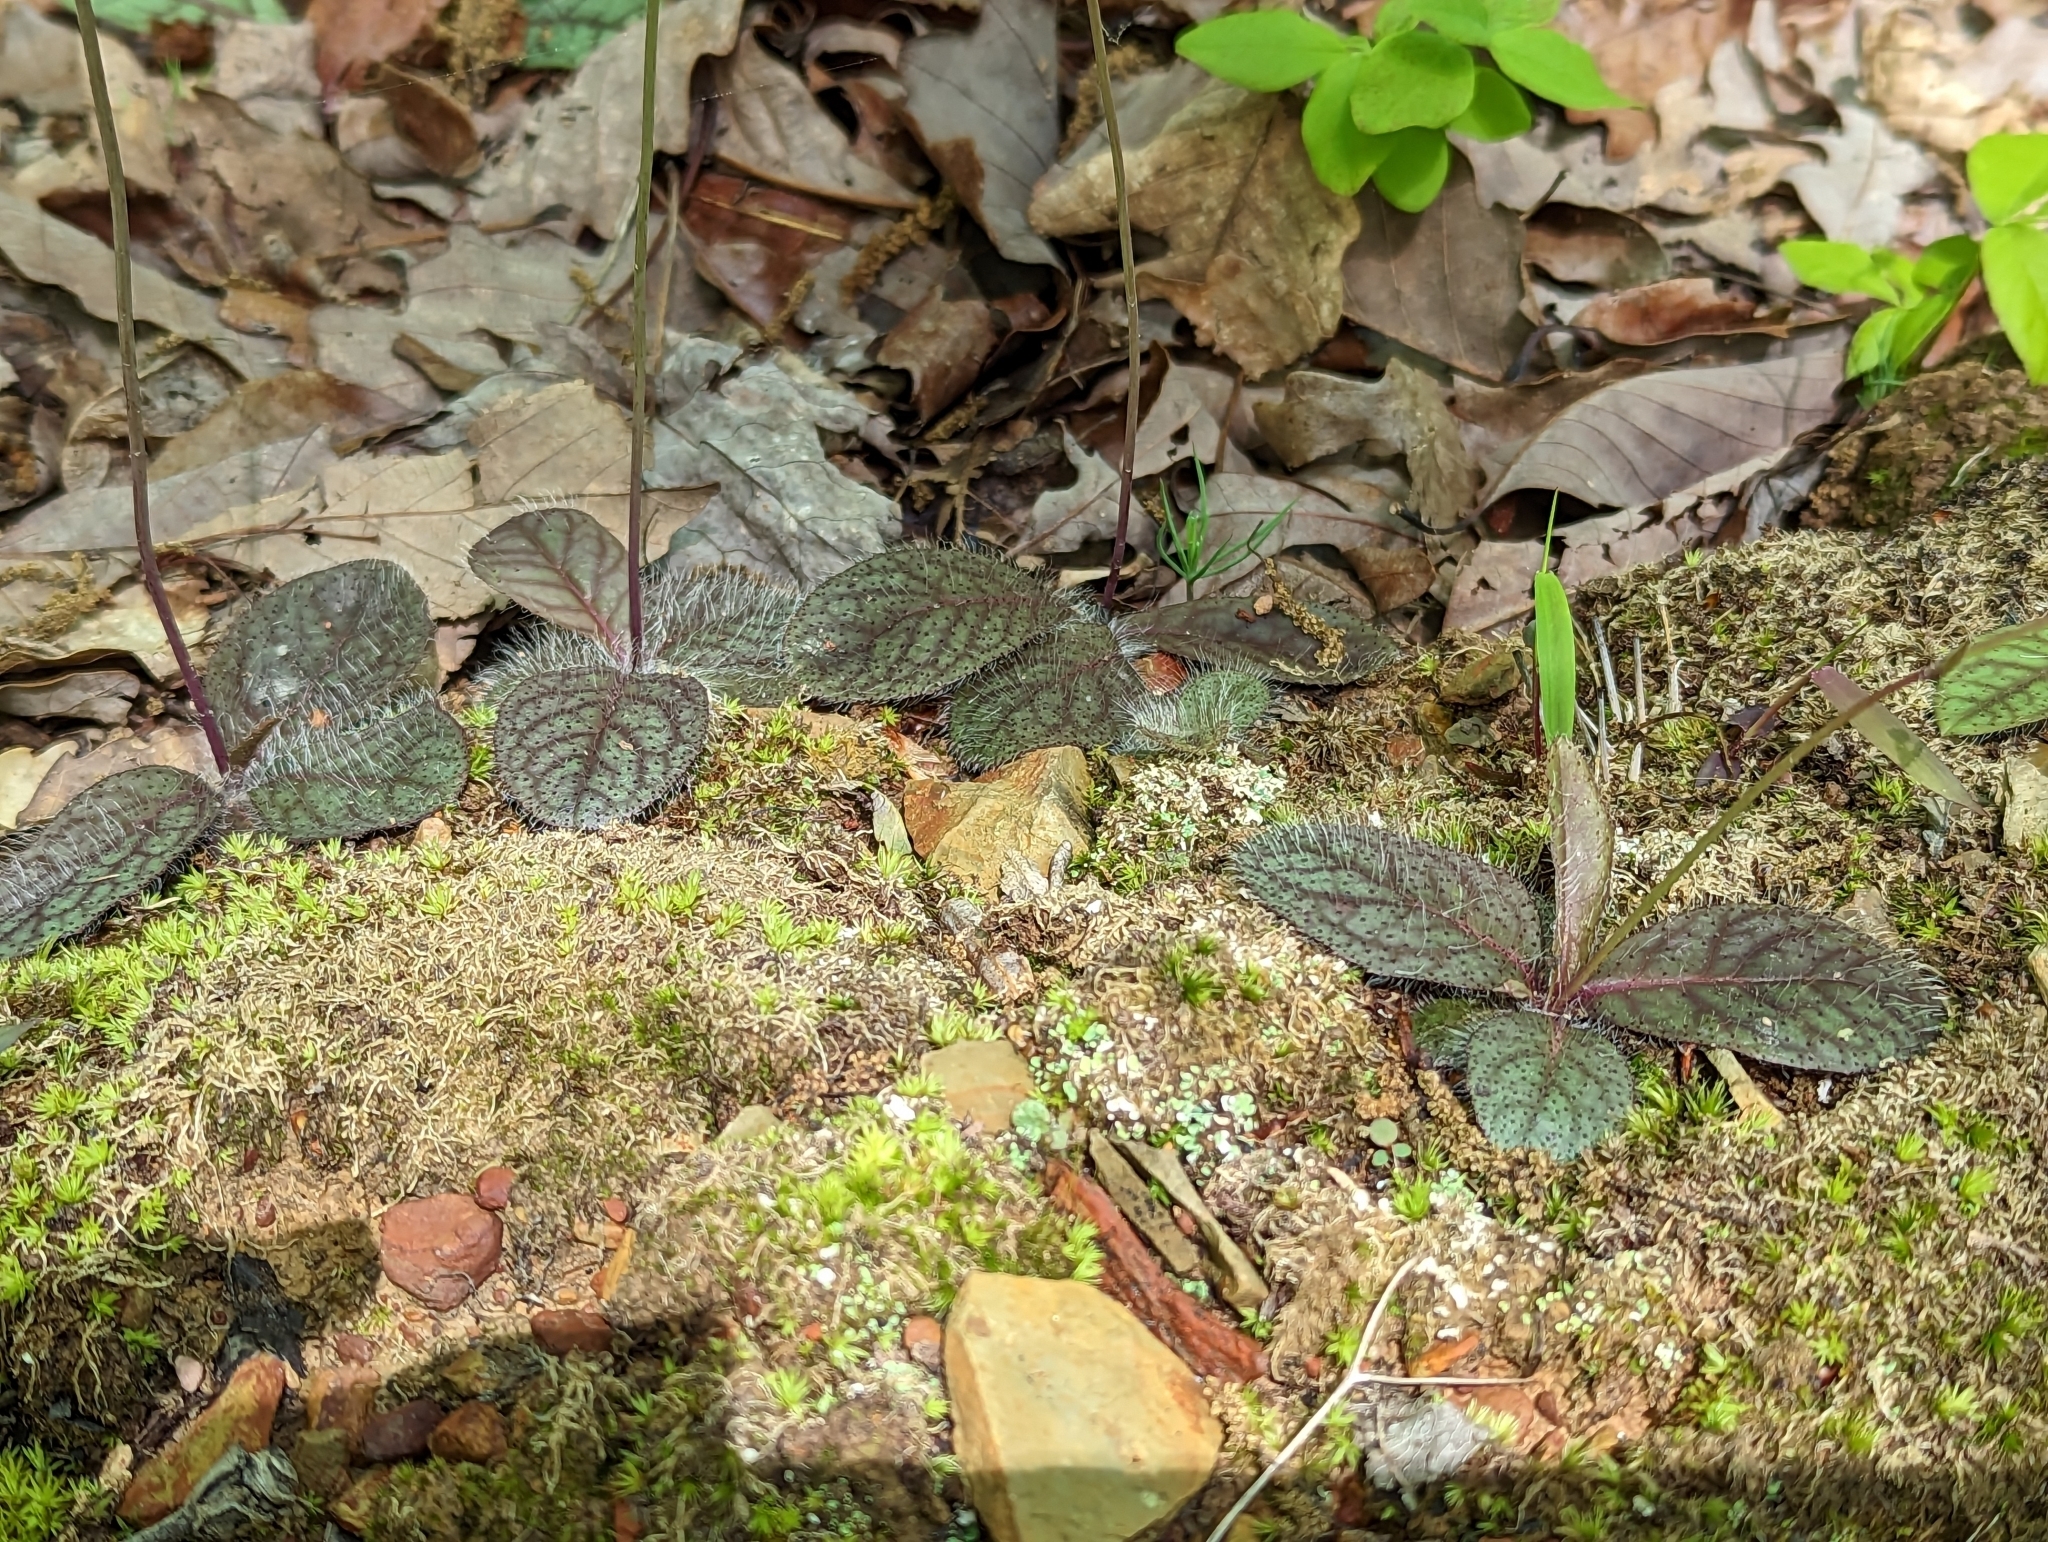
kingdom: Plantae
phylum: Tracheophyta
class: Magnoliopsida
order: Asterales
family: Asteraceae
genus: Hieracium
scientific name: Hieracium venosum
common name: Rattlesnake hawkweed
